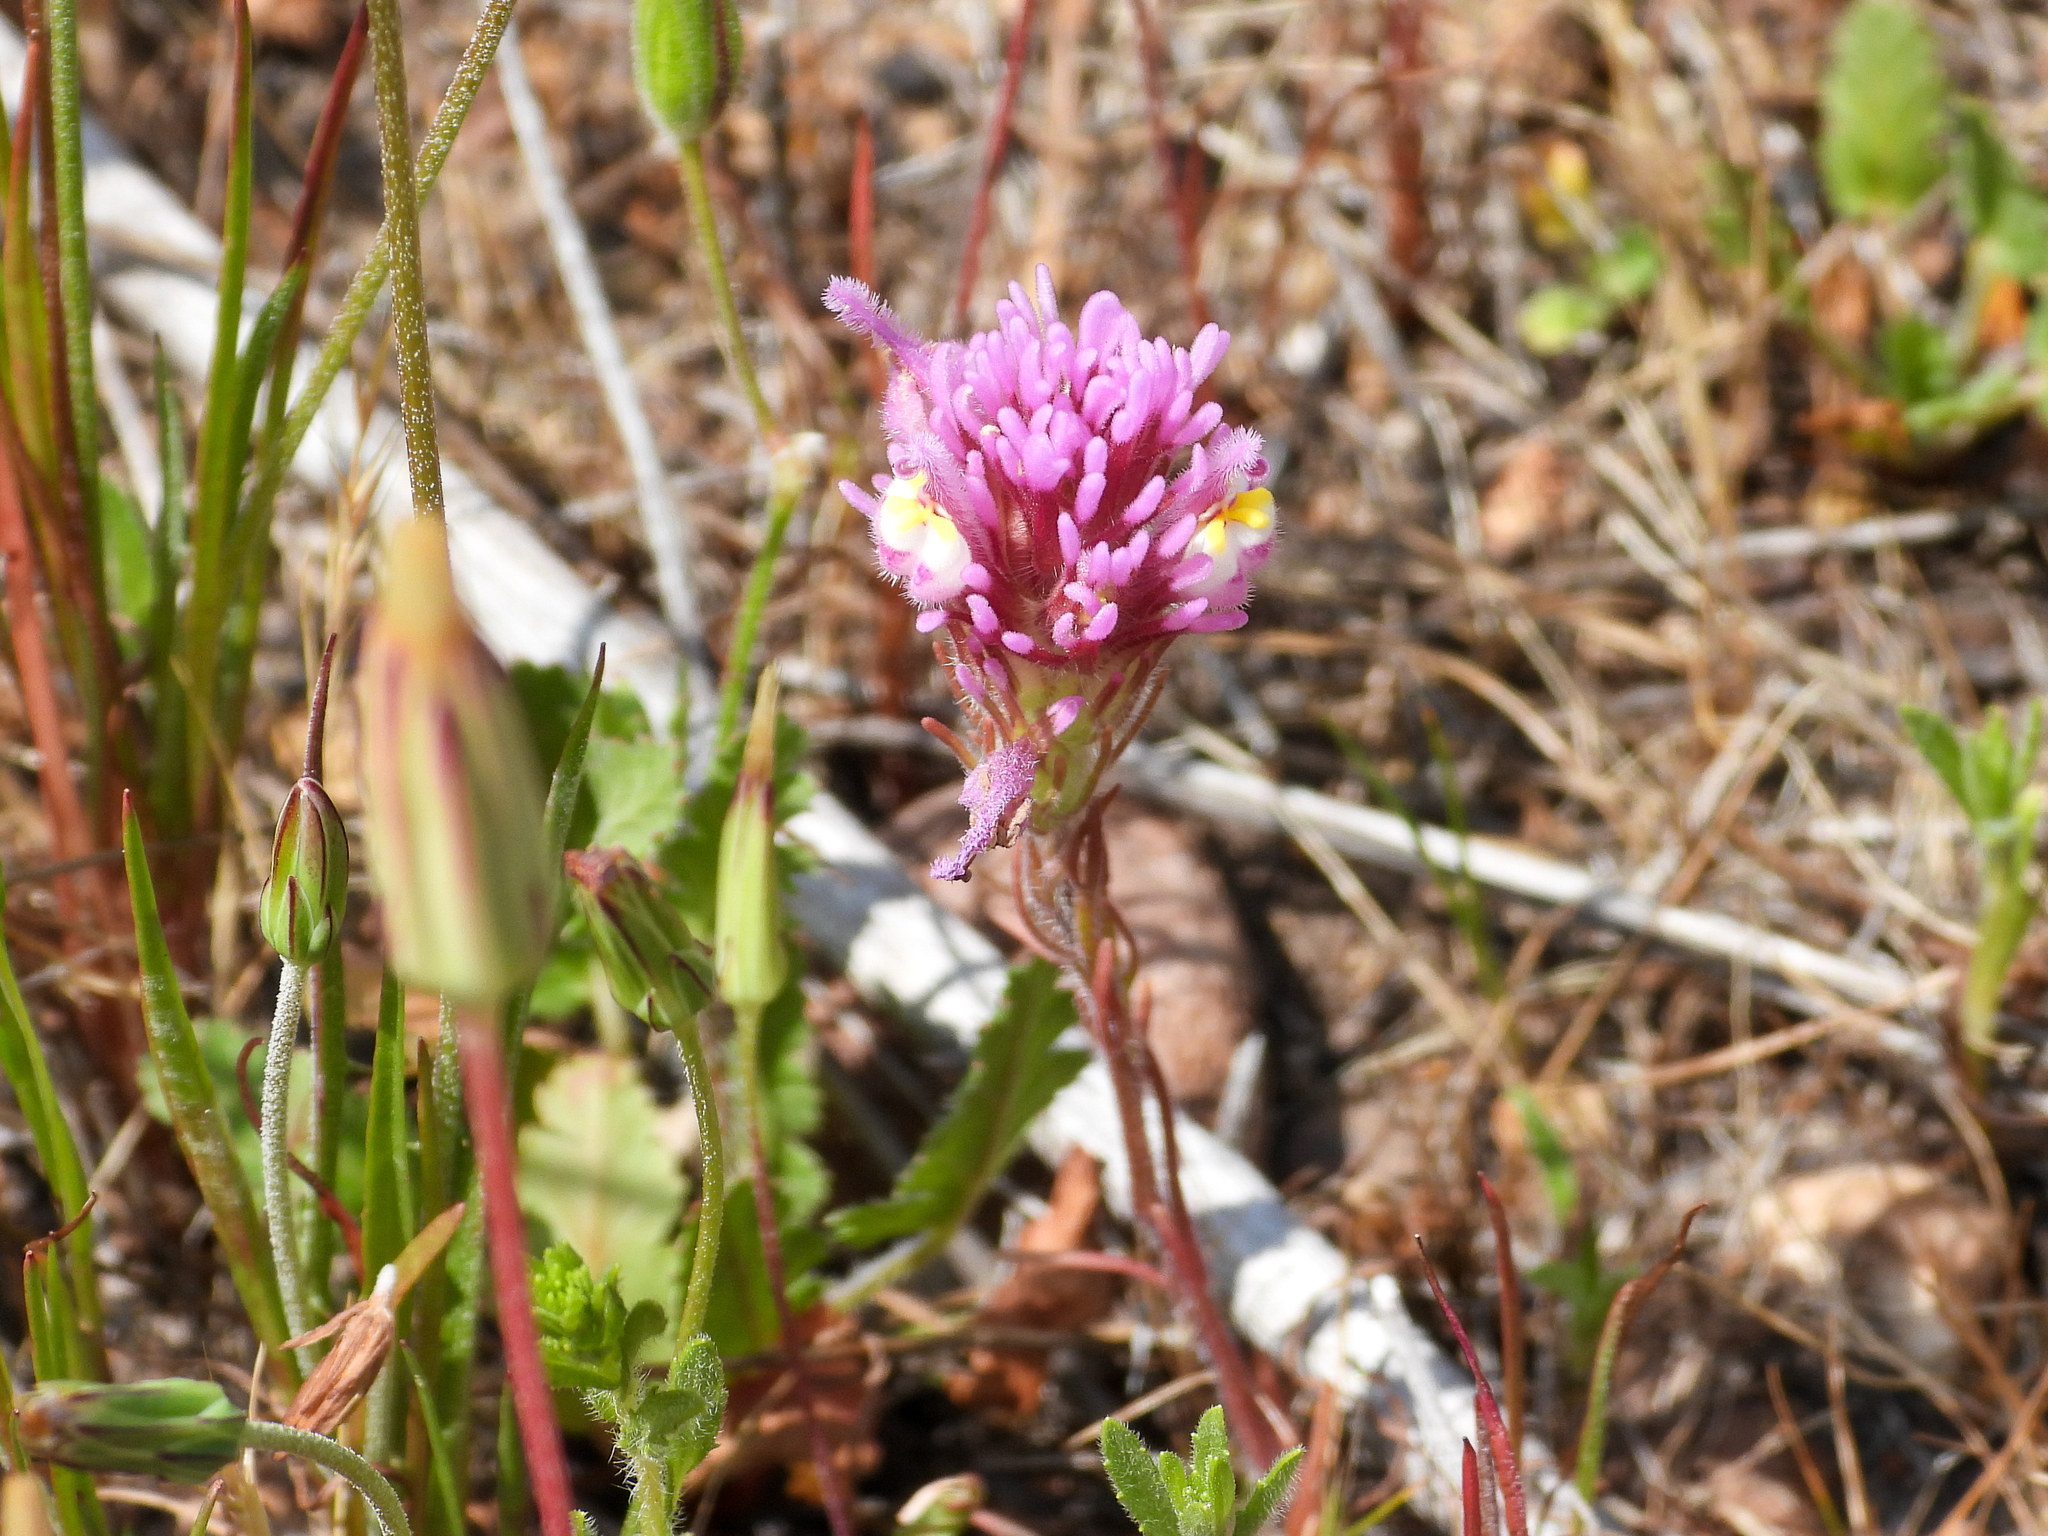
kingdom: Plantae
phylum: Tracheophyta
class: Magnoliopsida
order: Lamiales
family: Orobanchaceae
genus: Castilleja
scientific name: Castilleja exserta
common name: Purple owl-clover
